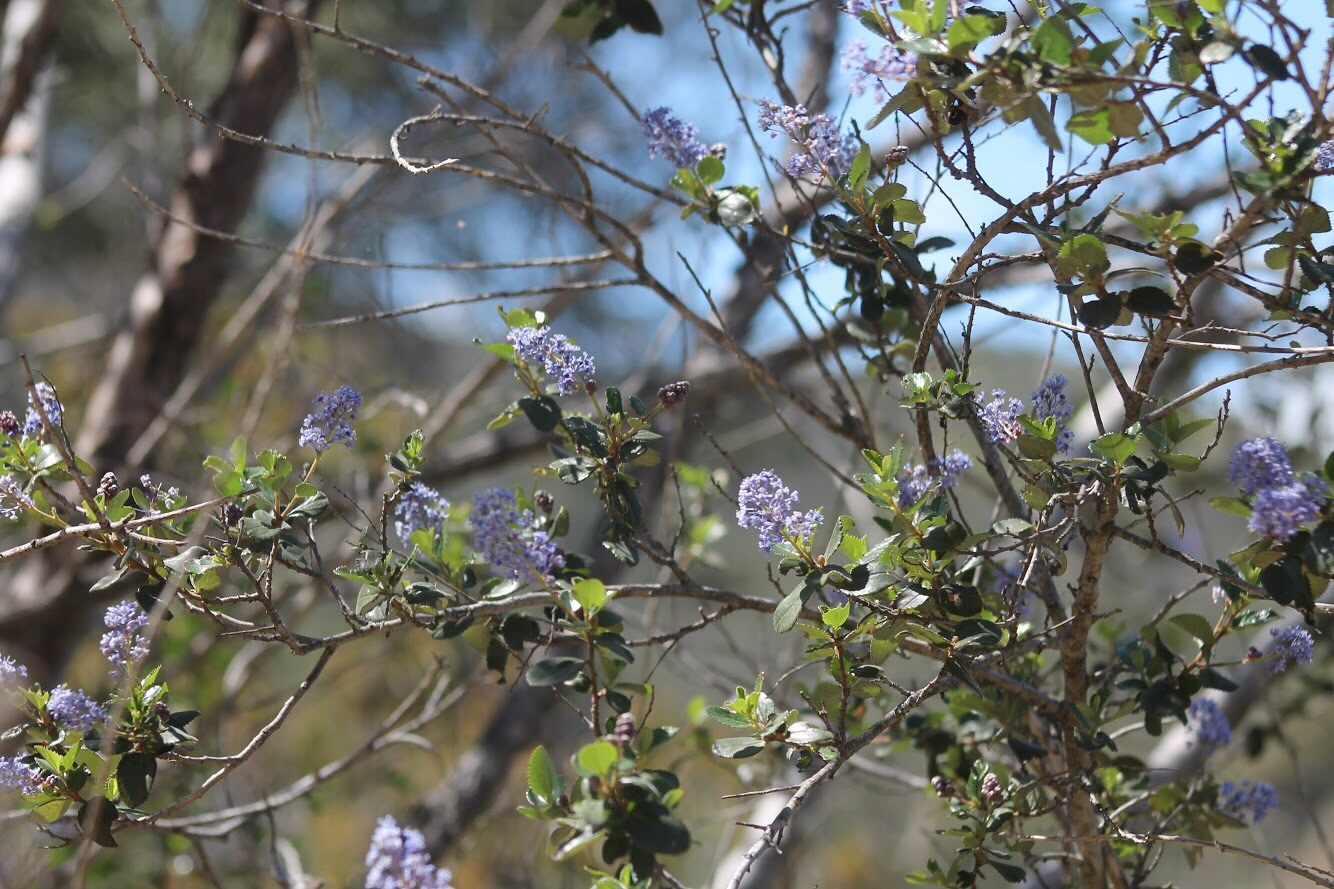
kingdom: Plantae
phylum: Tracheophyta
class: Magnoliopsida
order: Rosales
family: Rhamnaceae
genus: Ceanothus
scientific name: Ceanothus tomentosus
